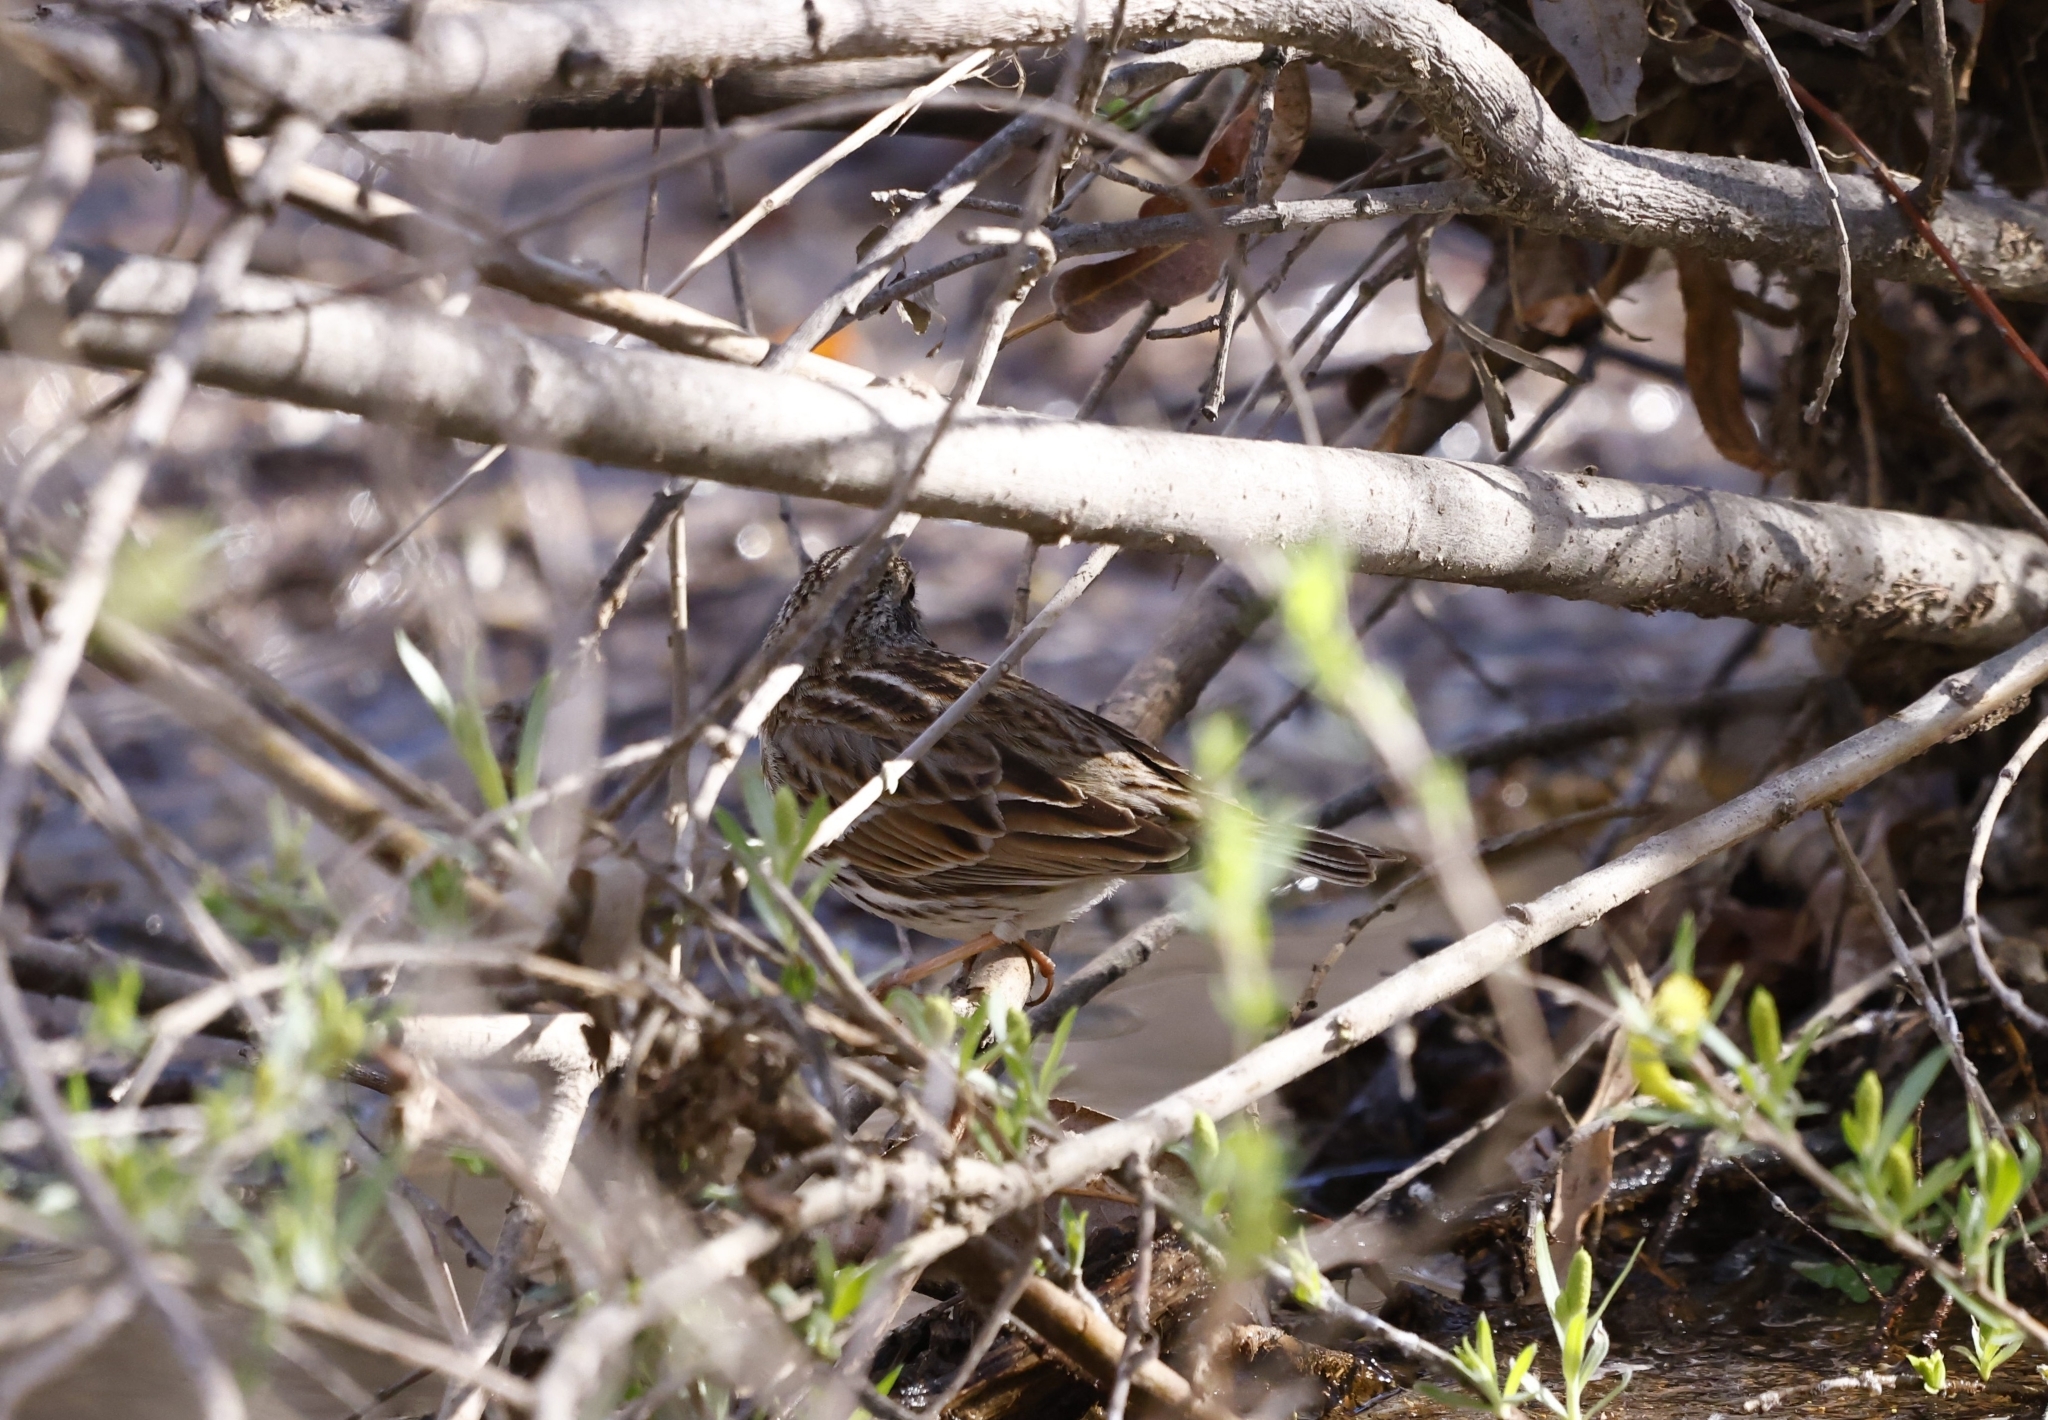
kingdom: Animalia
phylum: Chordata
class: Aves
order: Passeriformes
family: Passerellidae
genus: Passerculus
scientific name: Passerculus sandwichensis
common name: Savannah sparrow
